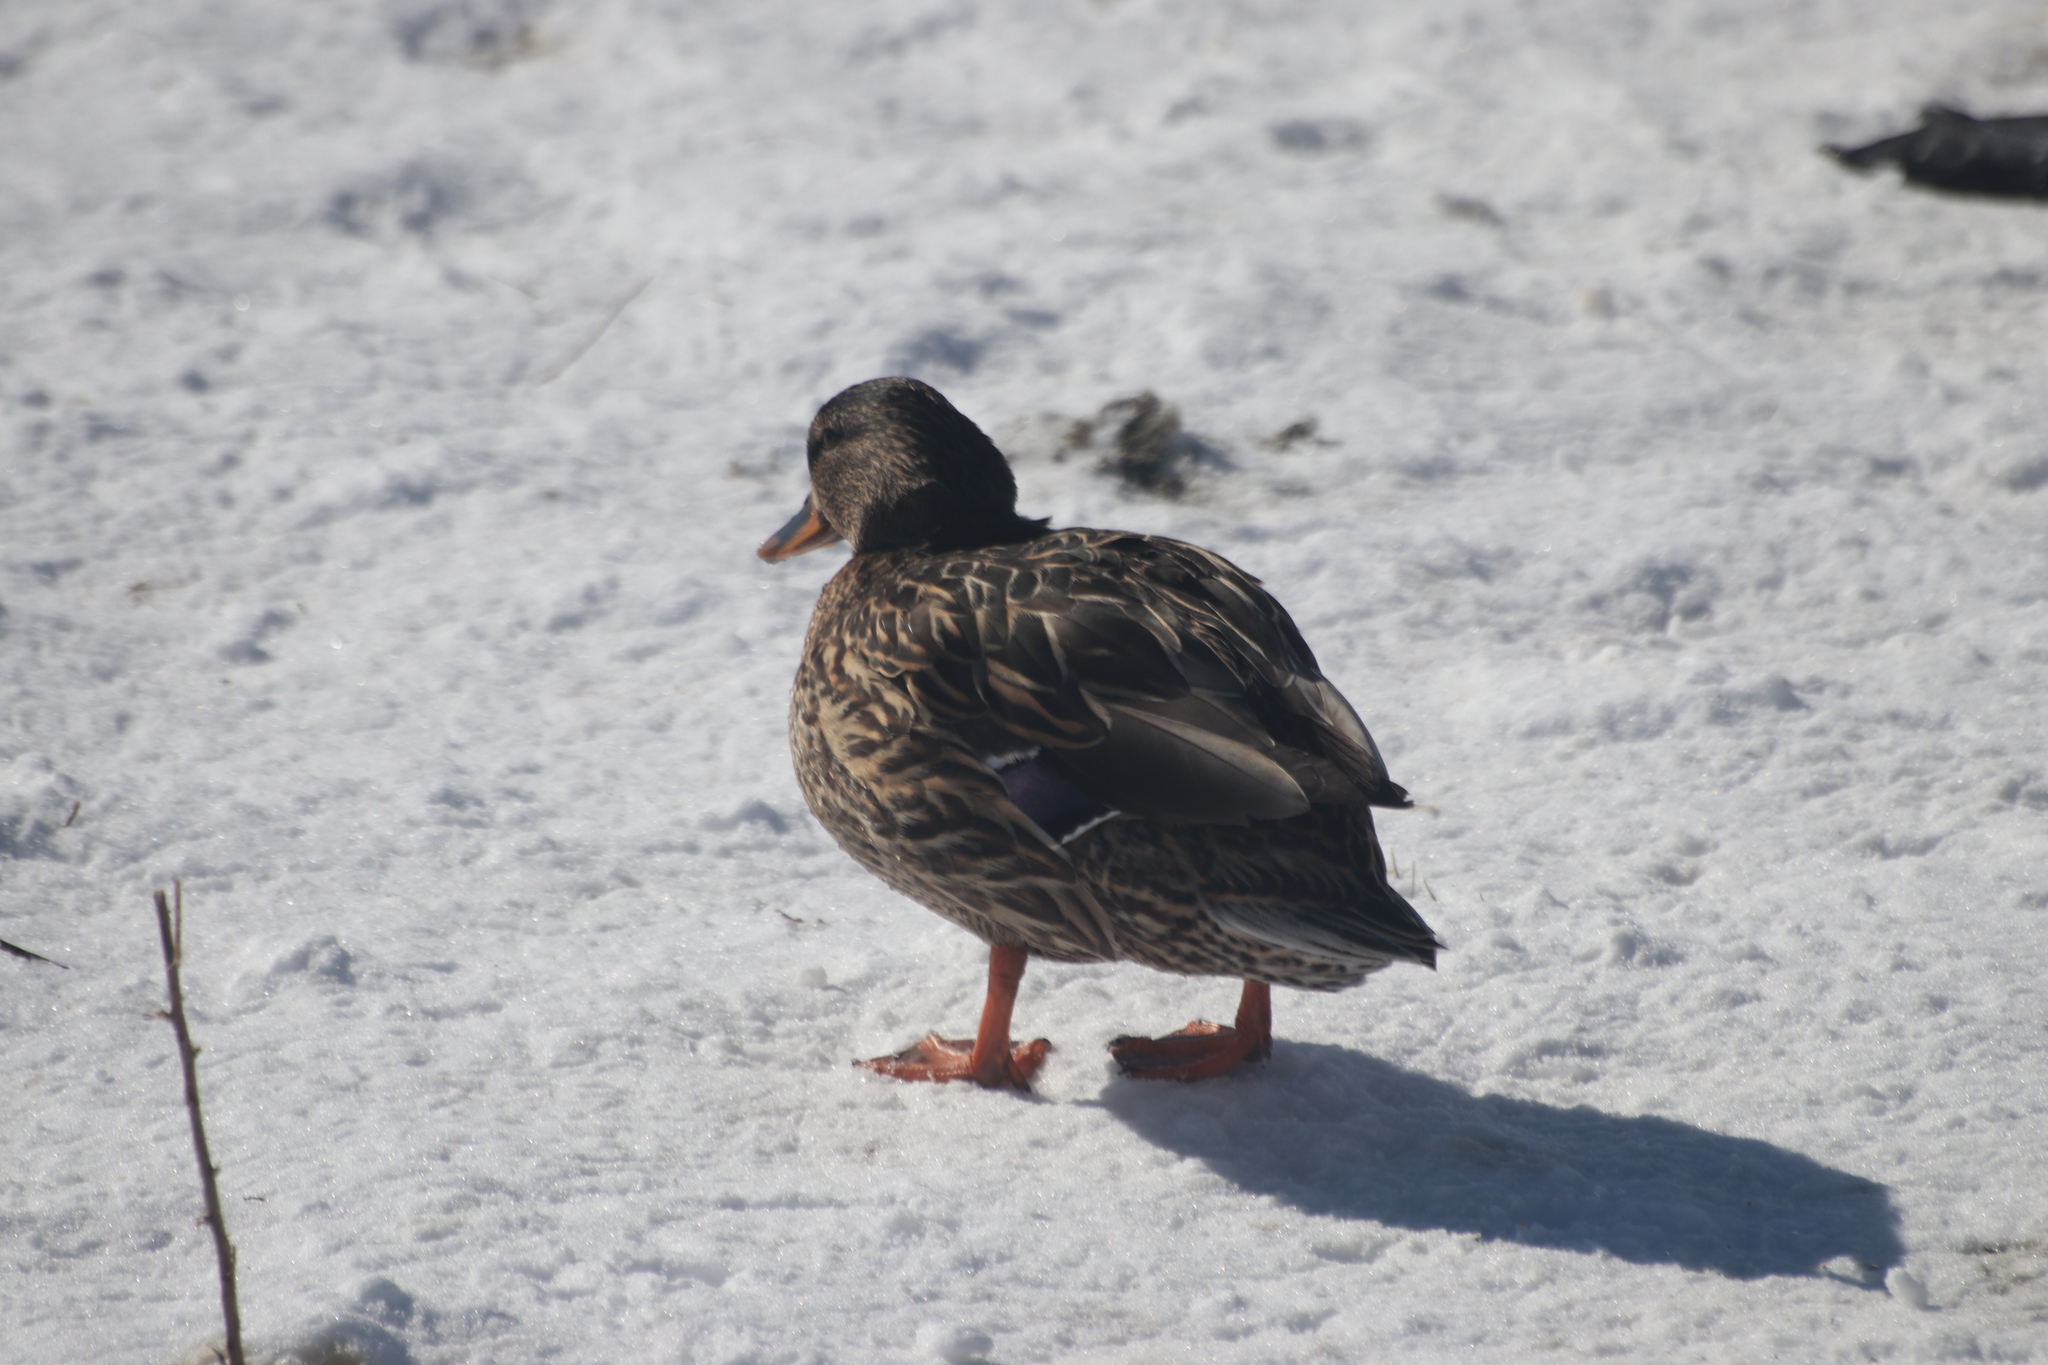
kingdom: Animalia
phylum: Chordata
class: Aves
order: Anseriformes
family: Anatidae
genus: Anas
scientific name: Anas platyrhynchos
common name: Mallard
